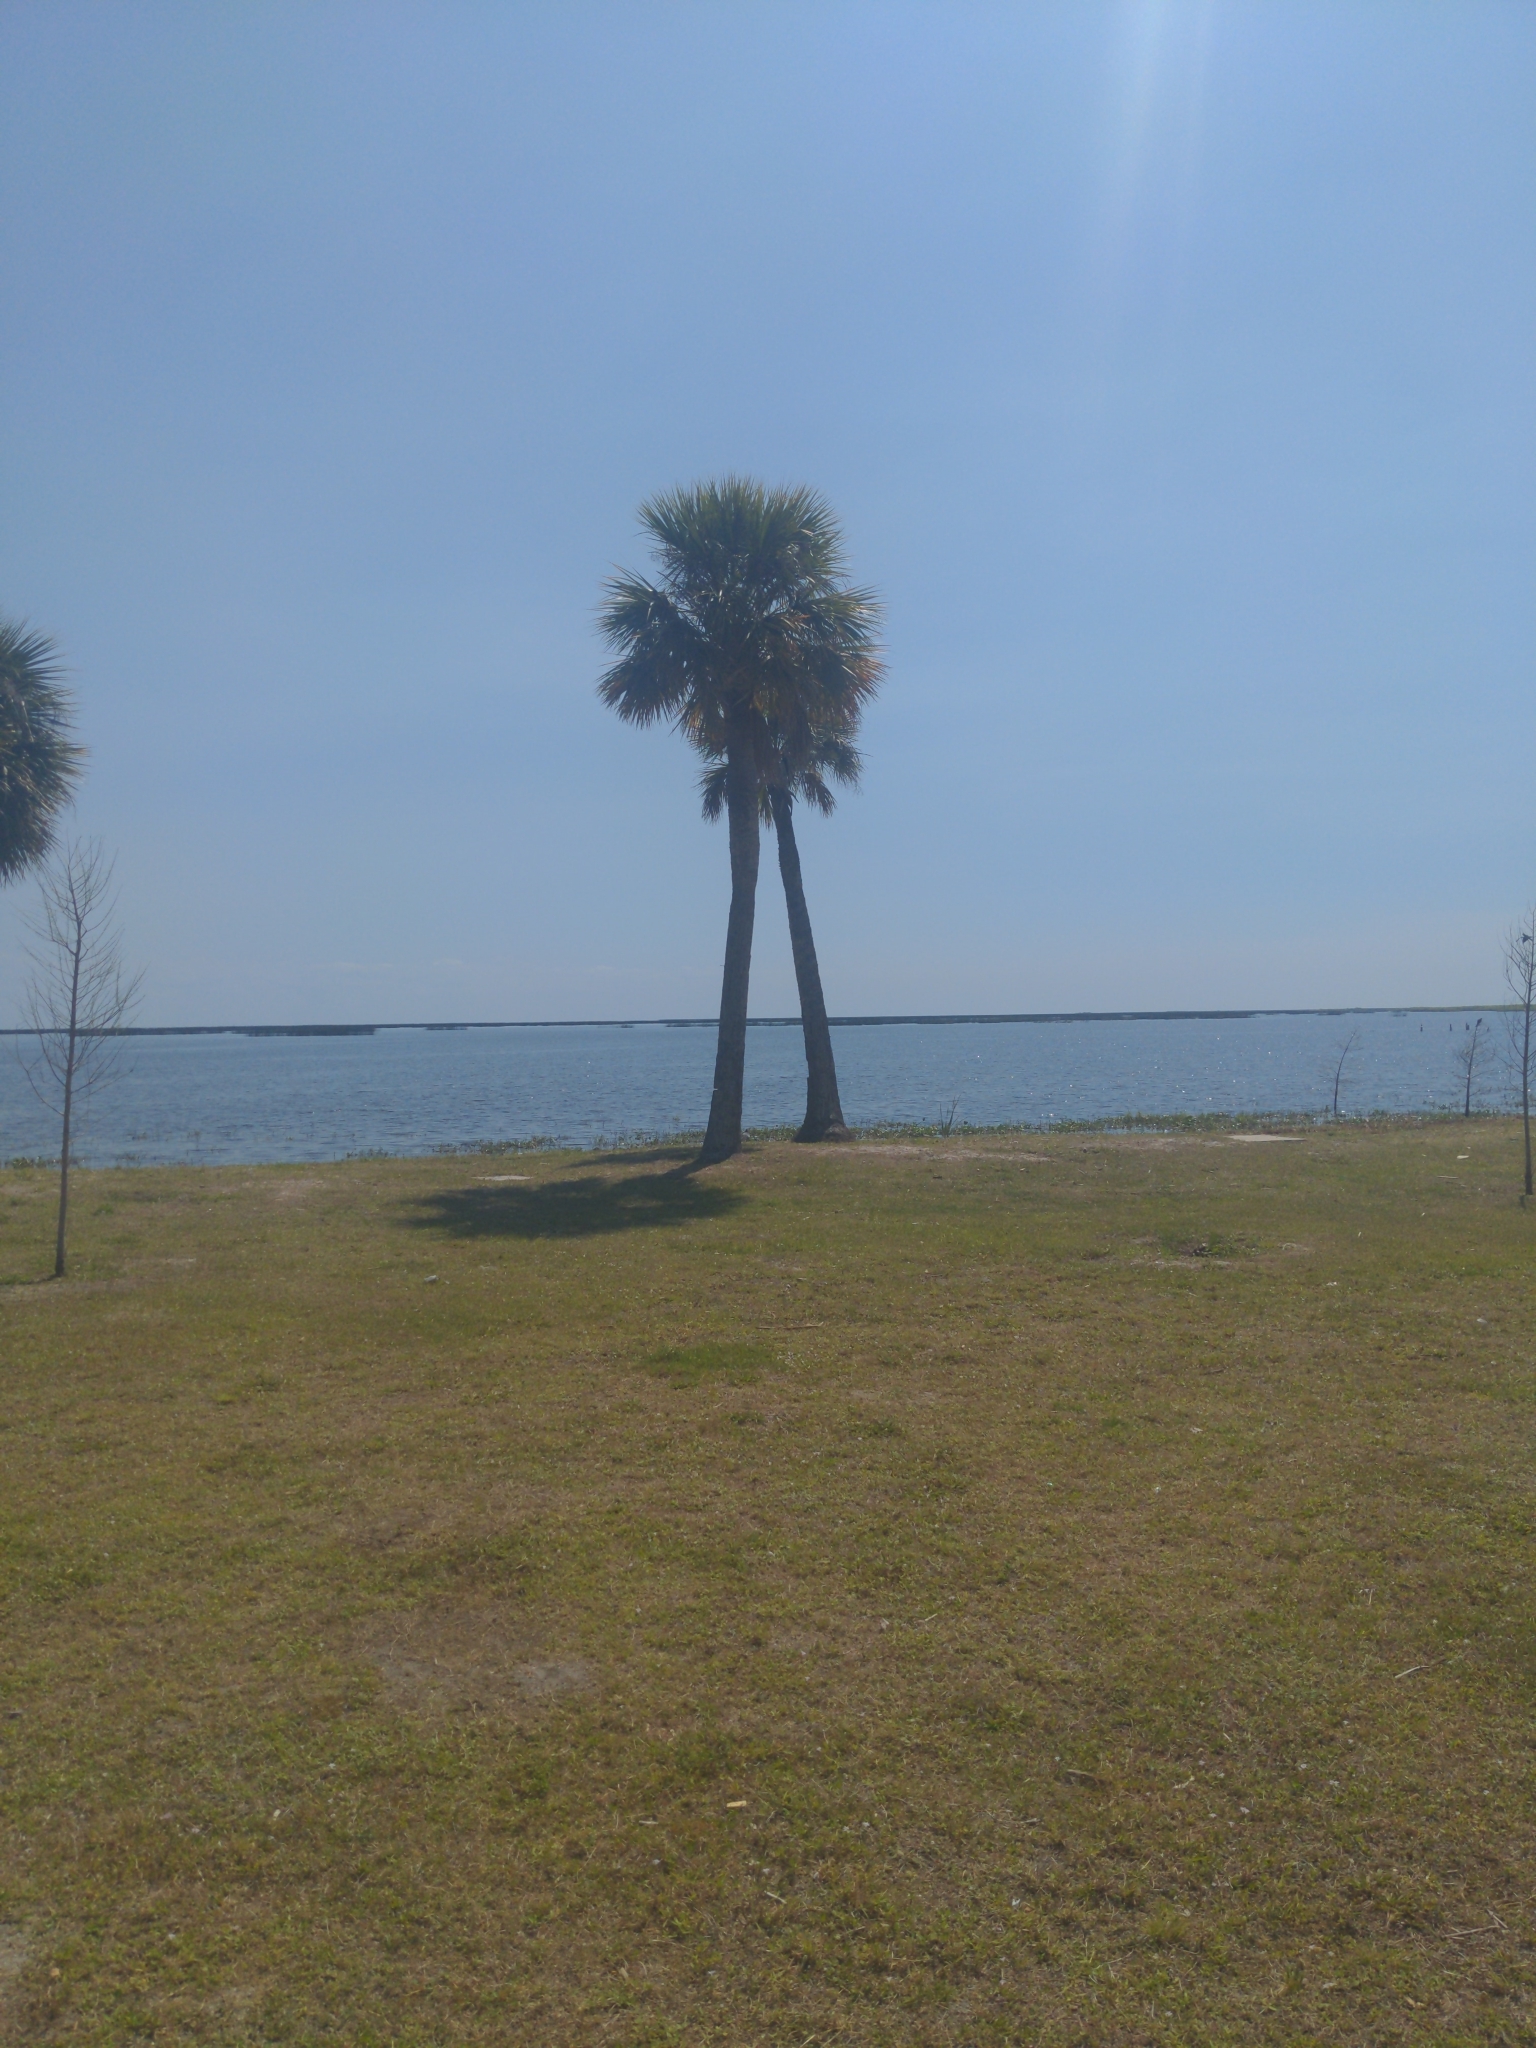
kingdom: Plantae
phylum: Tracheophyta
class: Liliopsida
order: Arecales
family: Arecaceae
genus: Sabal
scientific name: Sabal palmetto
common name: Blue palmetto
